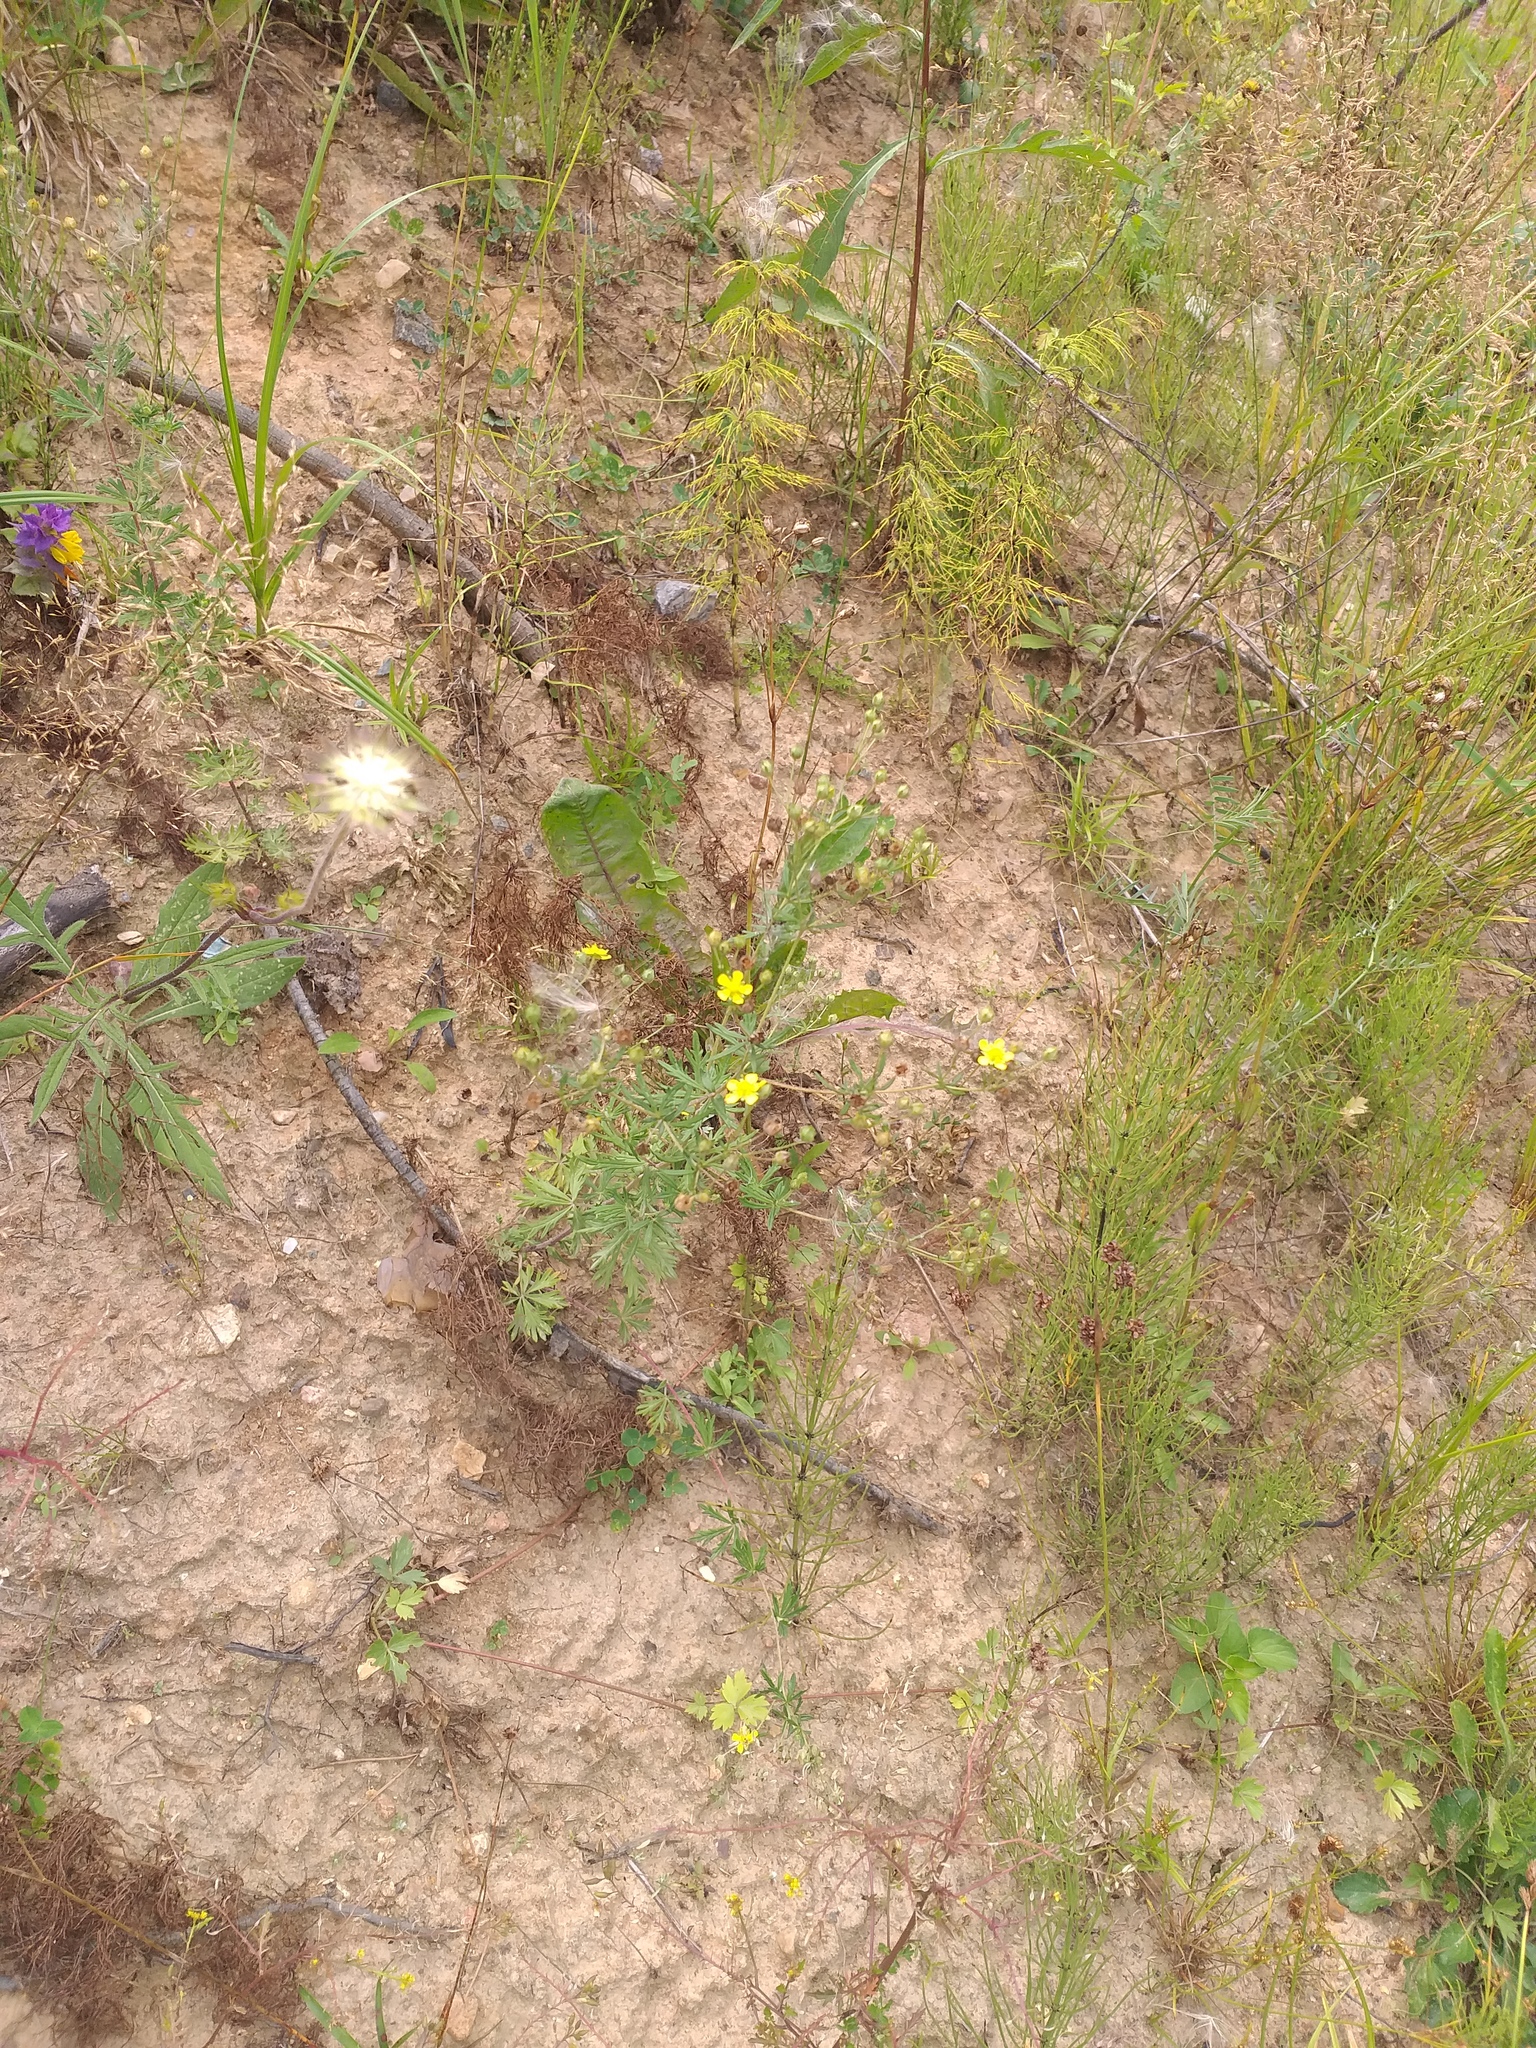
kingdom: Plantae
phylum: Tracheophyta
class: Magnoliopsida
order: Rosales
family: Rosaceae
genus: Potentilla
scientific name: Potentilla argentea
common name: Hoary cinquefoil
